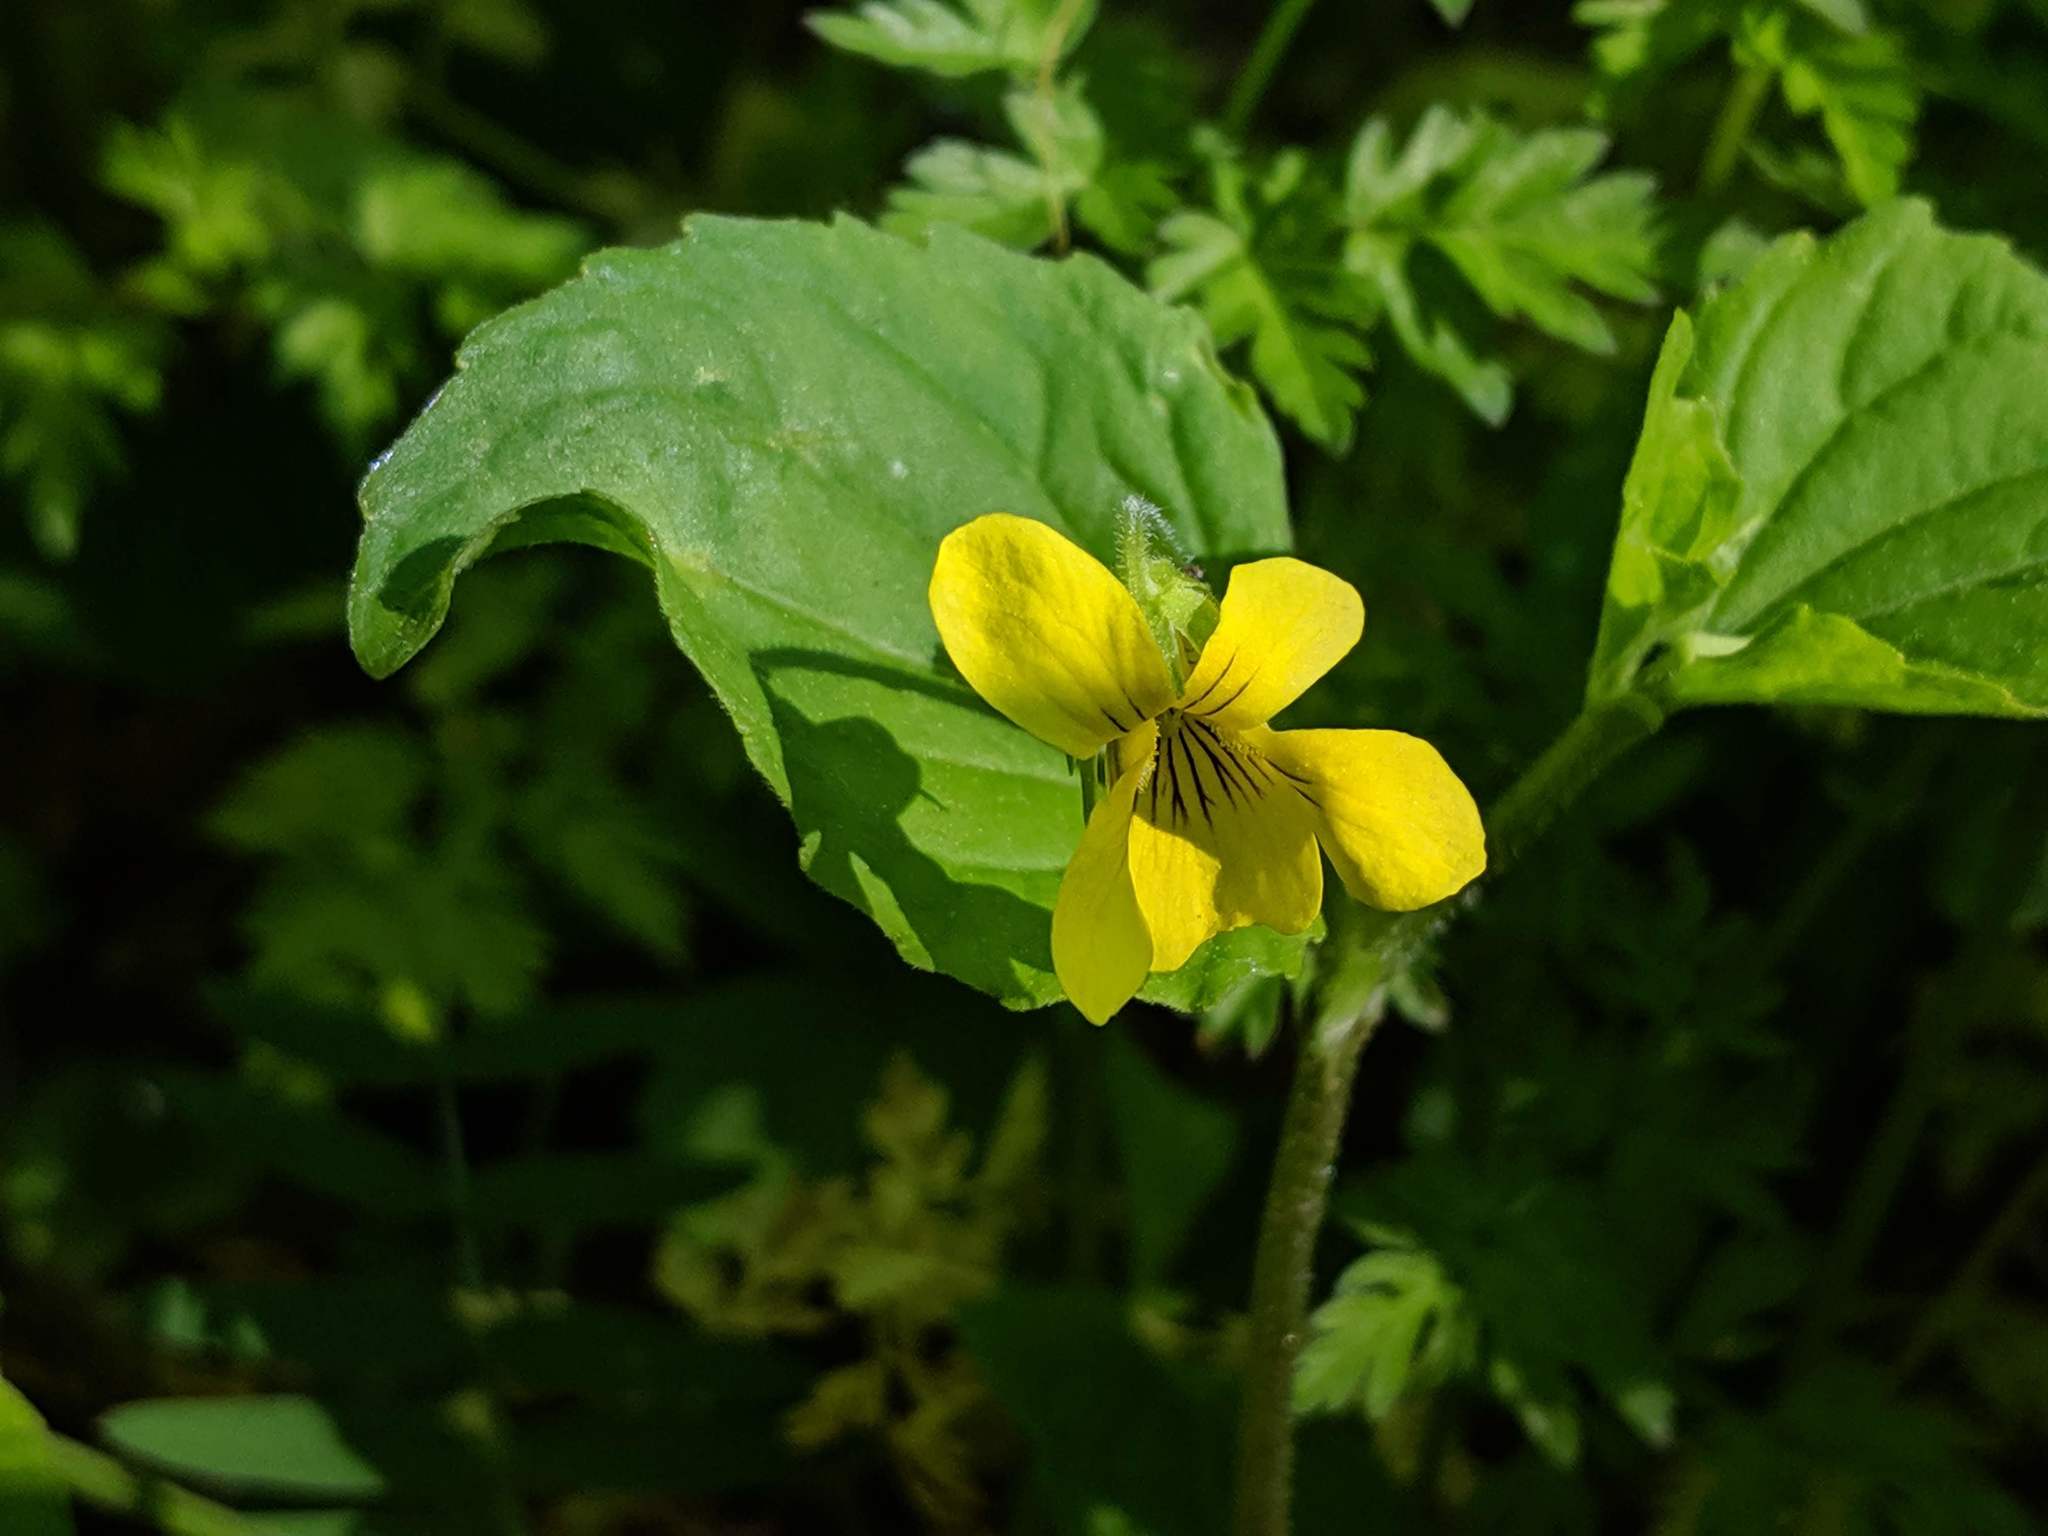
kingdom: Plantae
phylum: Tracheophyta
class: Magnoliopsida
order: Malpighiales
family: Violaceae
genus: Viola
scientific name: Viola eriocarpa
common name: Smooth yellow violet
